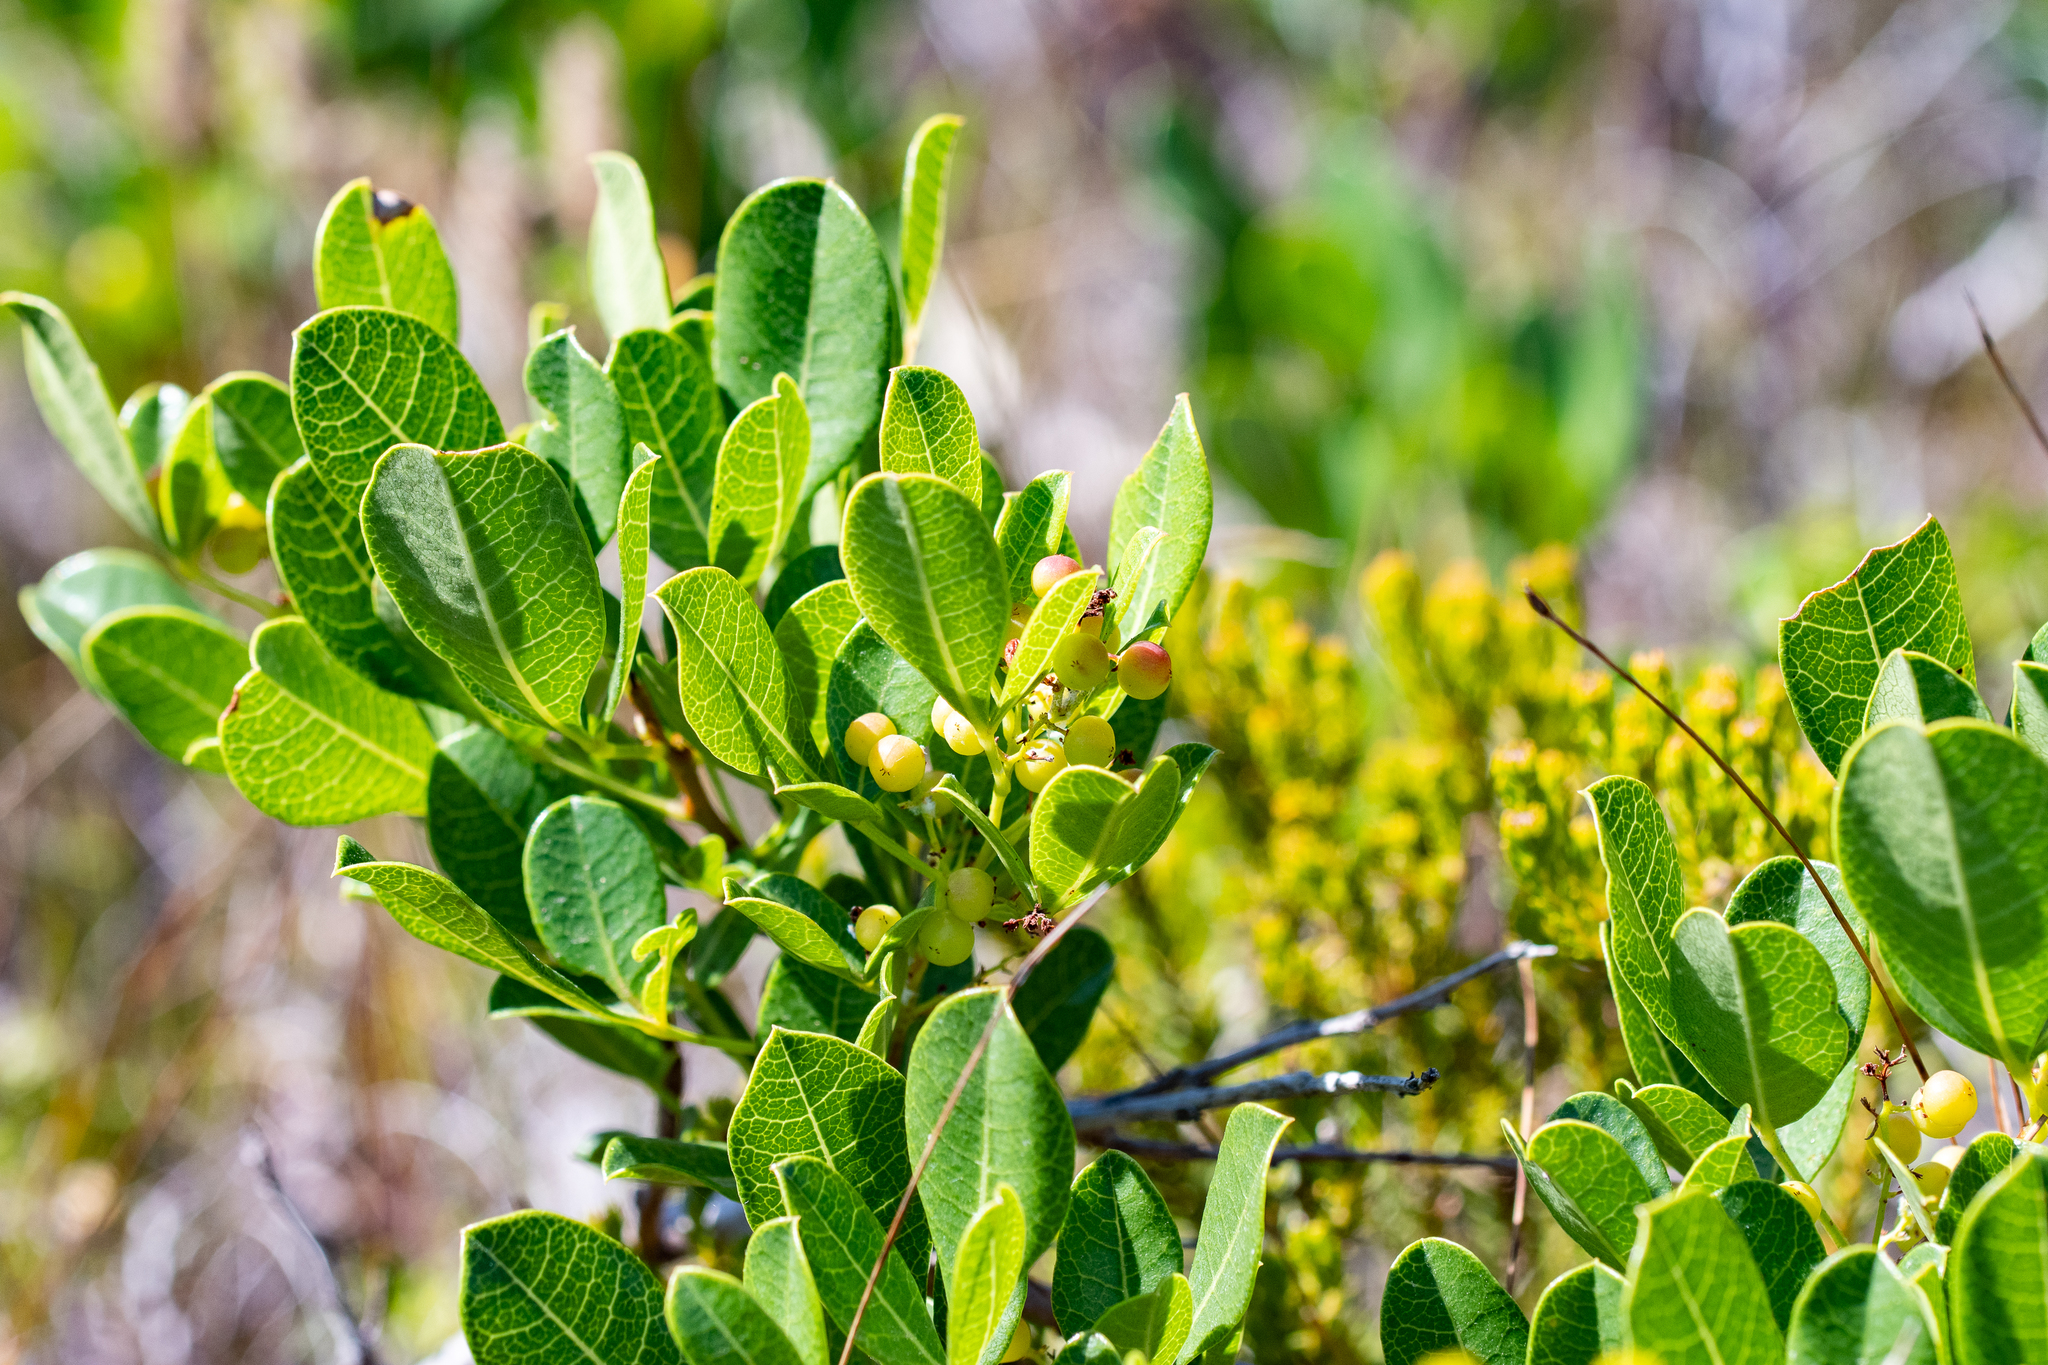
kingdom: Plantae
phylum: Tracheophyta
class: Magnoliopsida
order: Sapindales
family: Anacardiaceae
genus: Searsia
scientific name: Searsia laevigata
